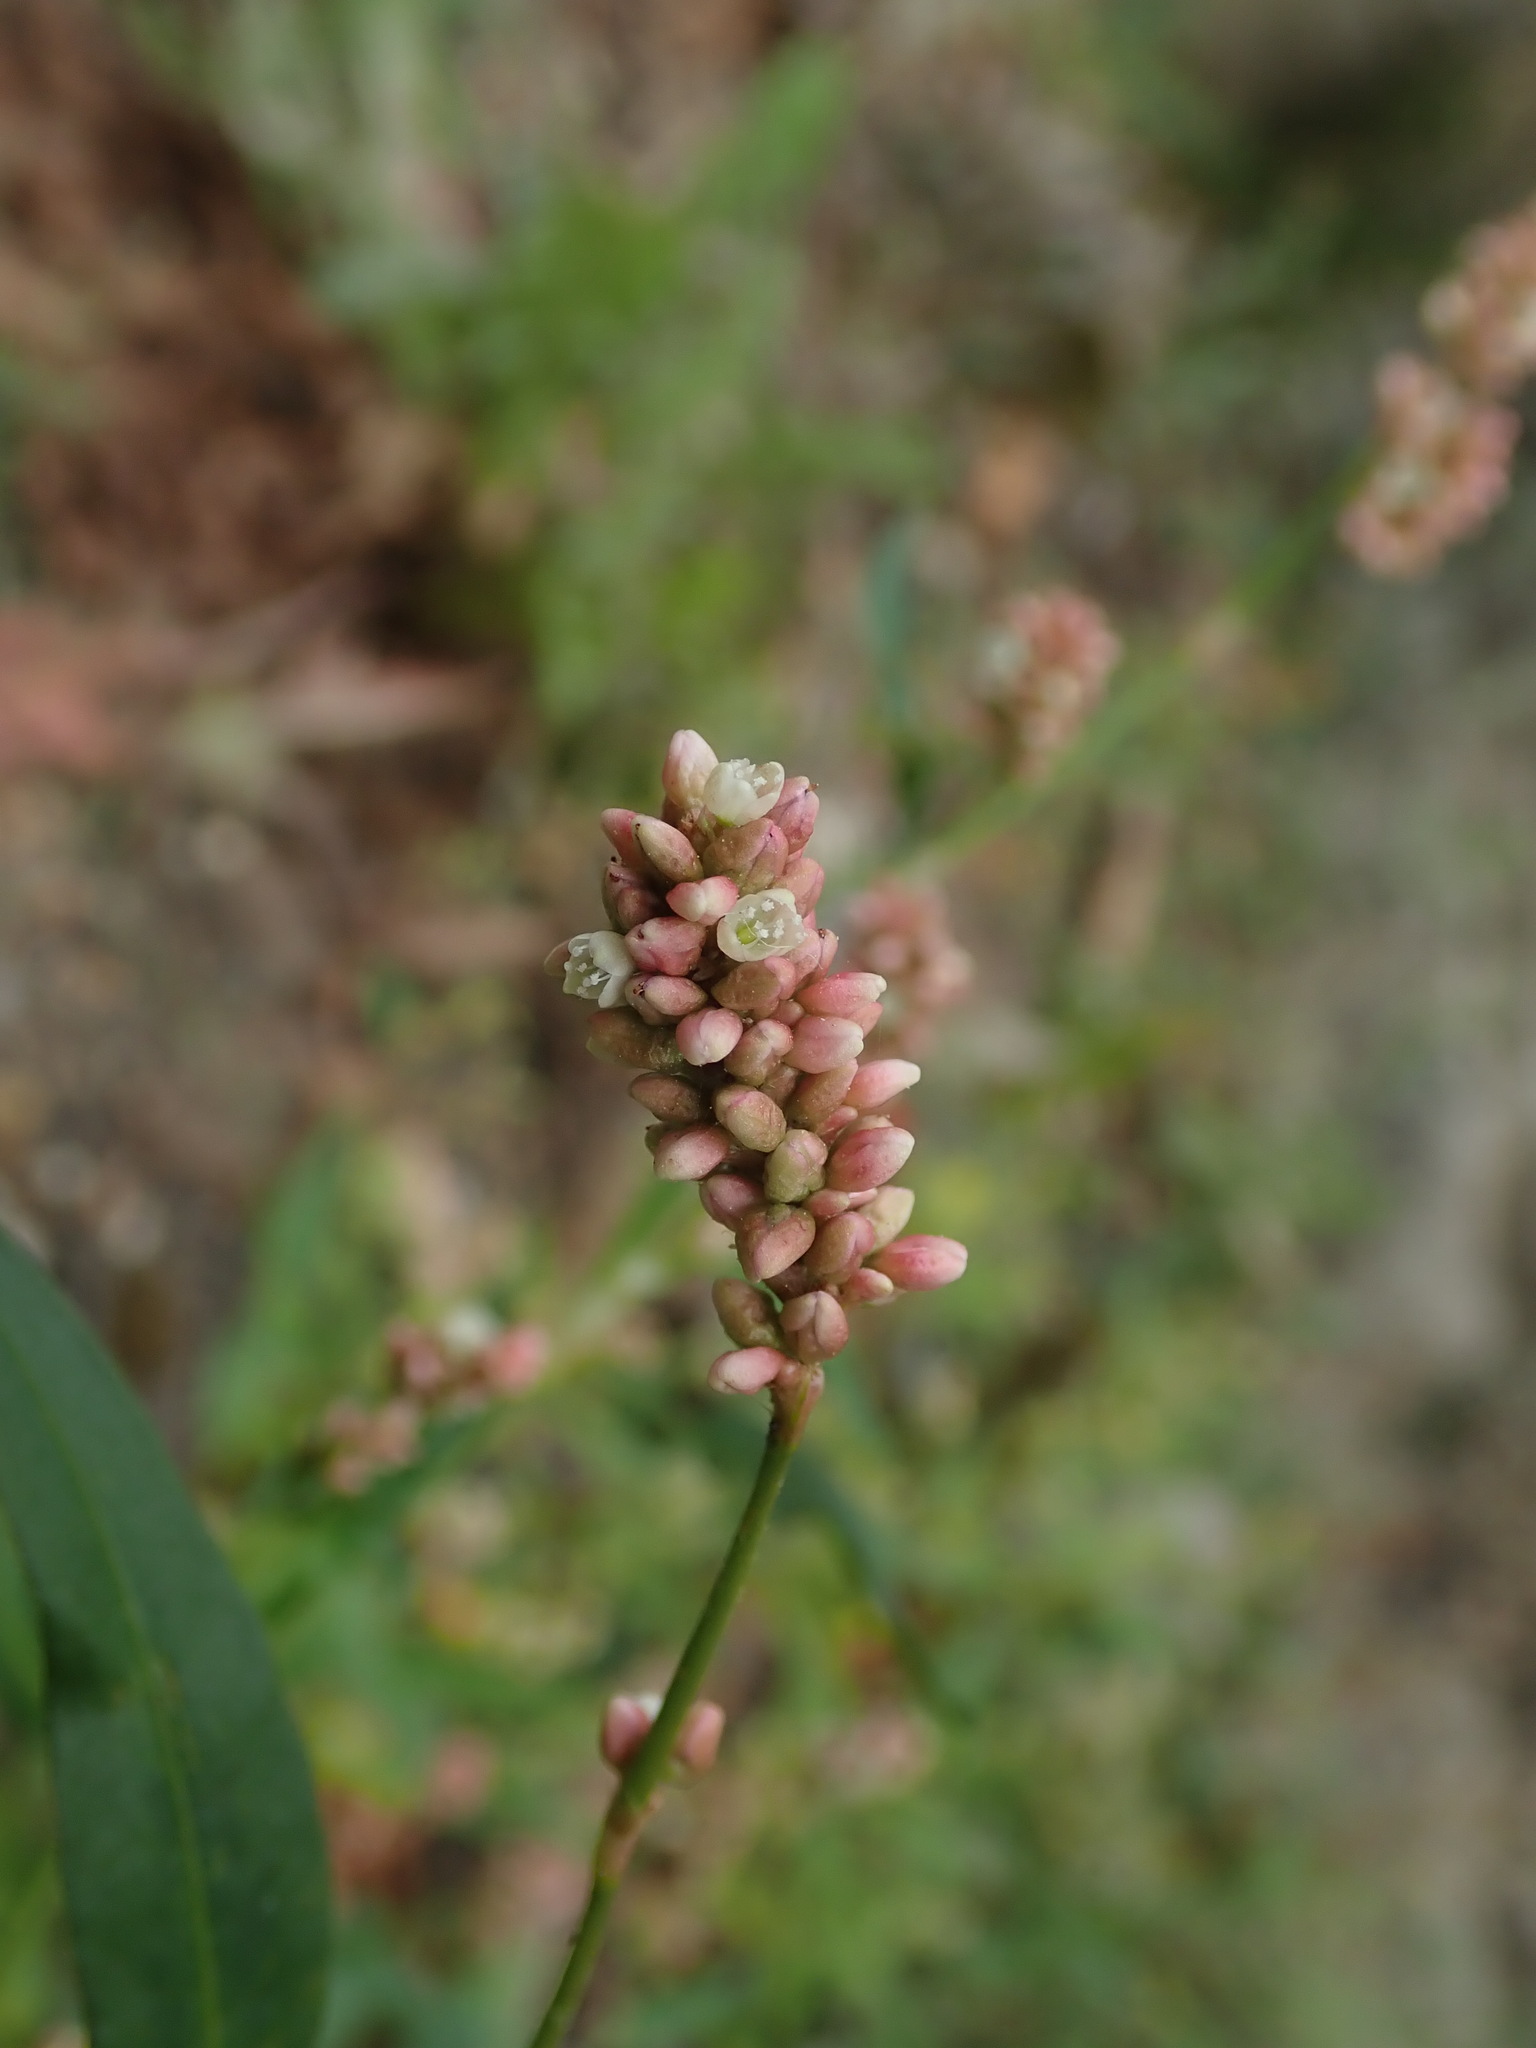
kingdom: Plantae
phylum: Tracheophyta
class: Magnoliopsida
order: Caryophyllales
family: Polygonaceae
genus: Persicaria
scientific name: Persicaria maculosa
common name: Redshank
